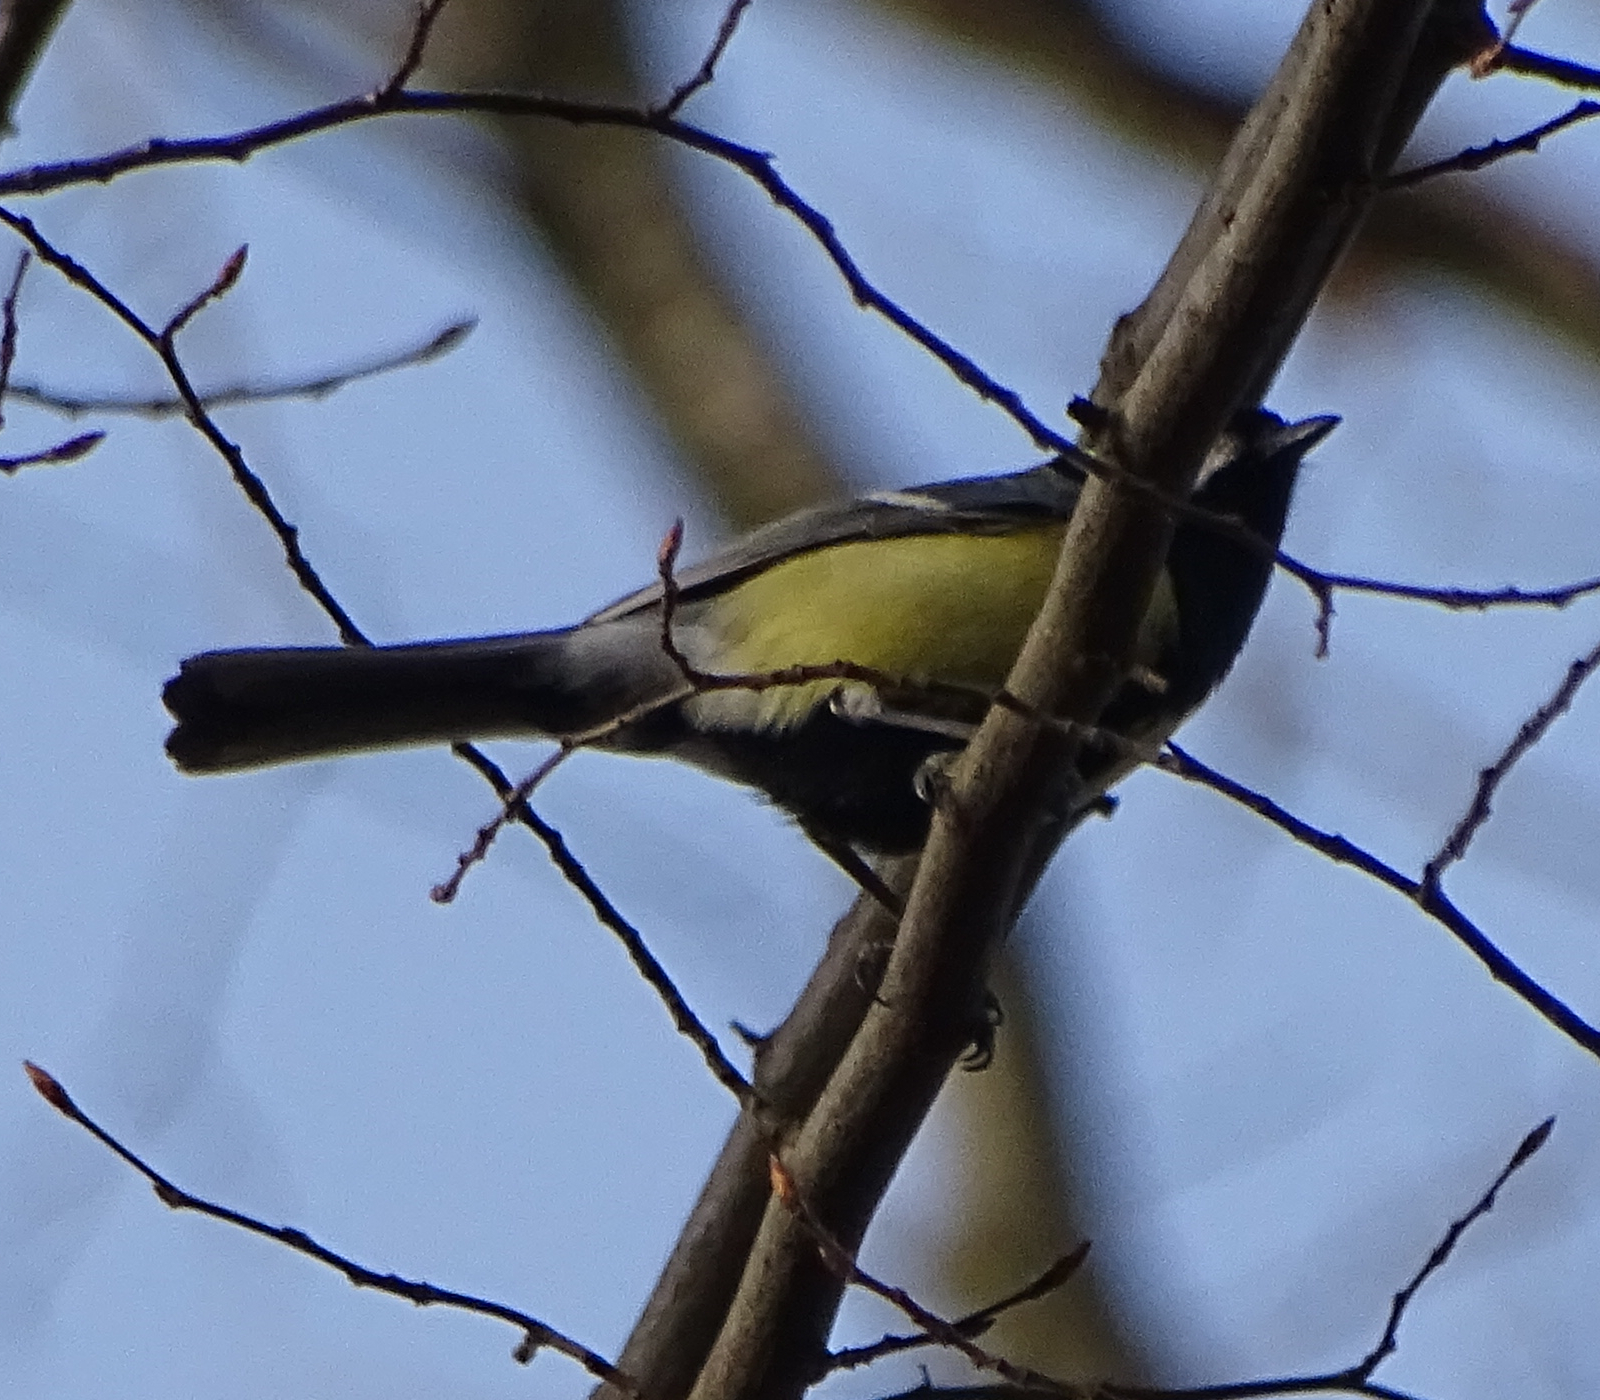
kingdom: Animalia
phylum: Chordata
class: Aves
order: Passeriformes
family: Paridae
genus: Parus
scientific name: Parus major
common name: Great tit
